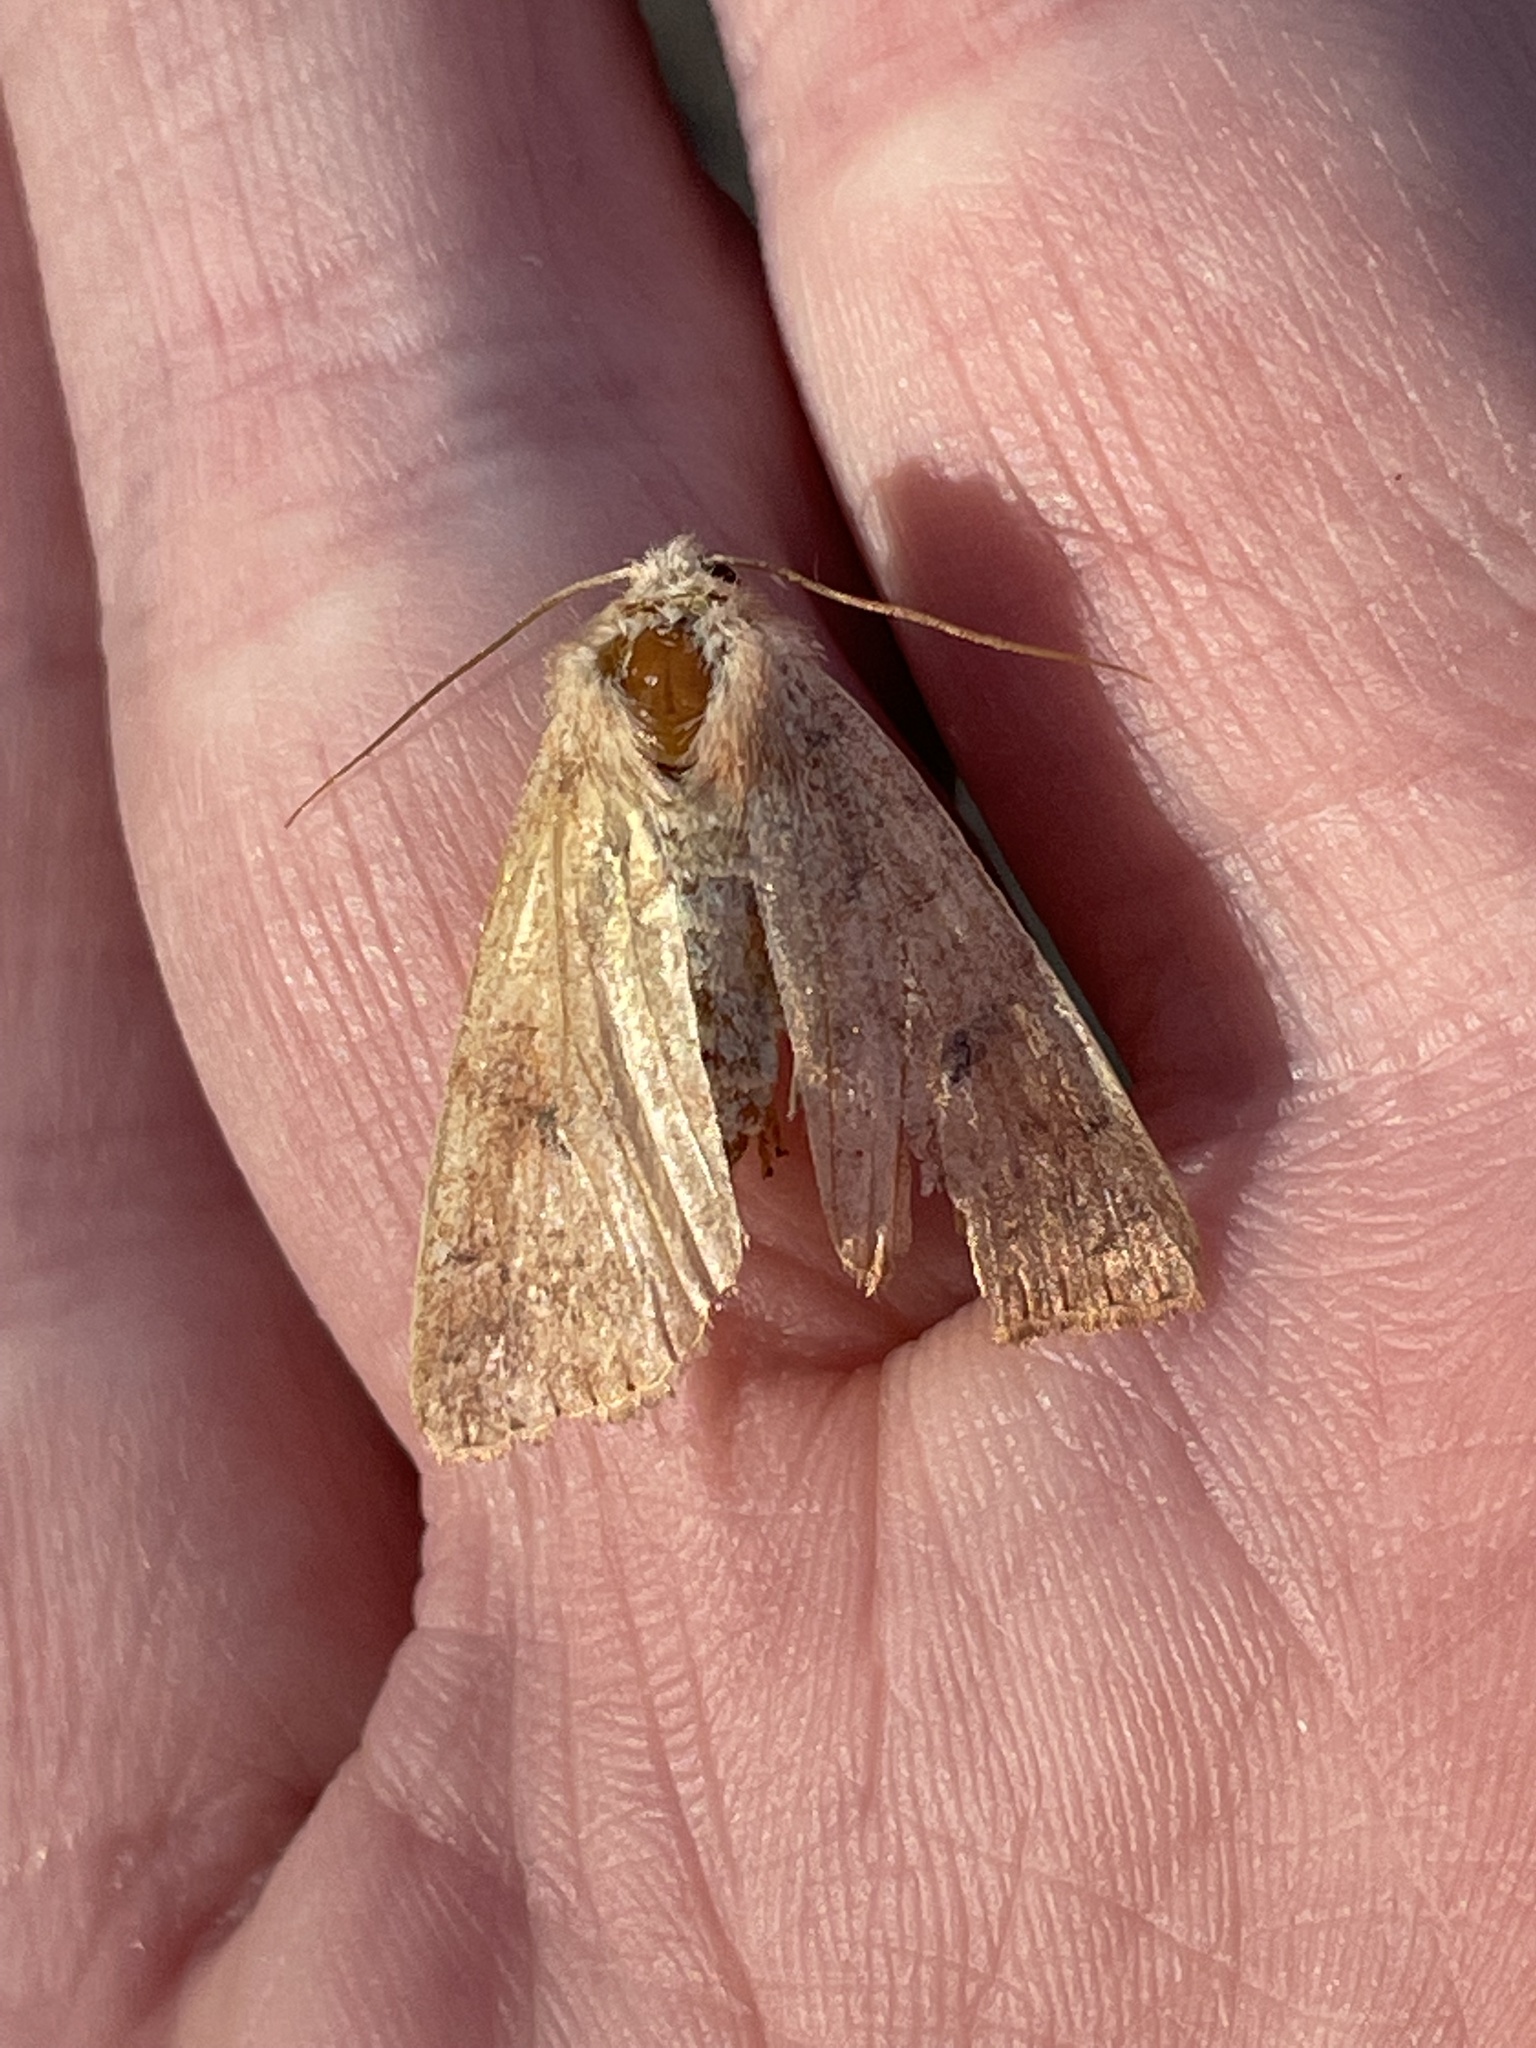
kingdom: Animalia
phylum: Arthropoda
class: Insecta
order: Lepidoptera
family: Noctuidae
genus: Agrochola
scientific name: Agrochola bicolorago
